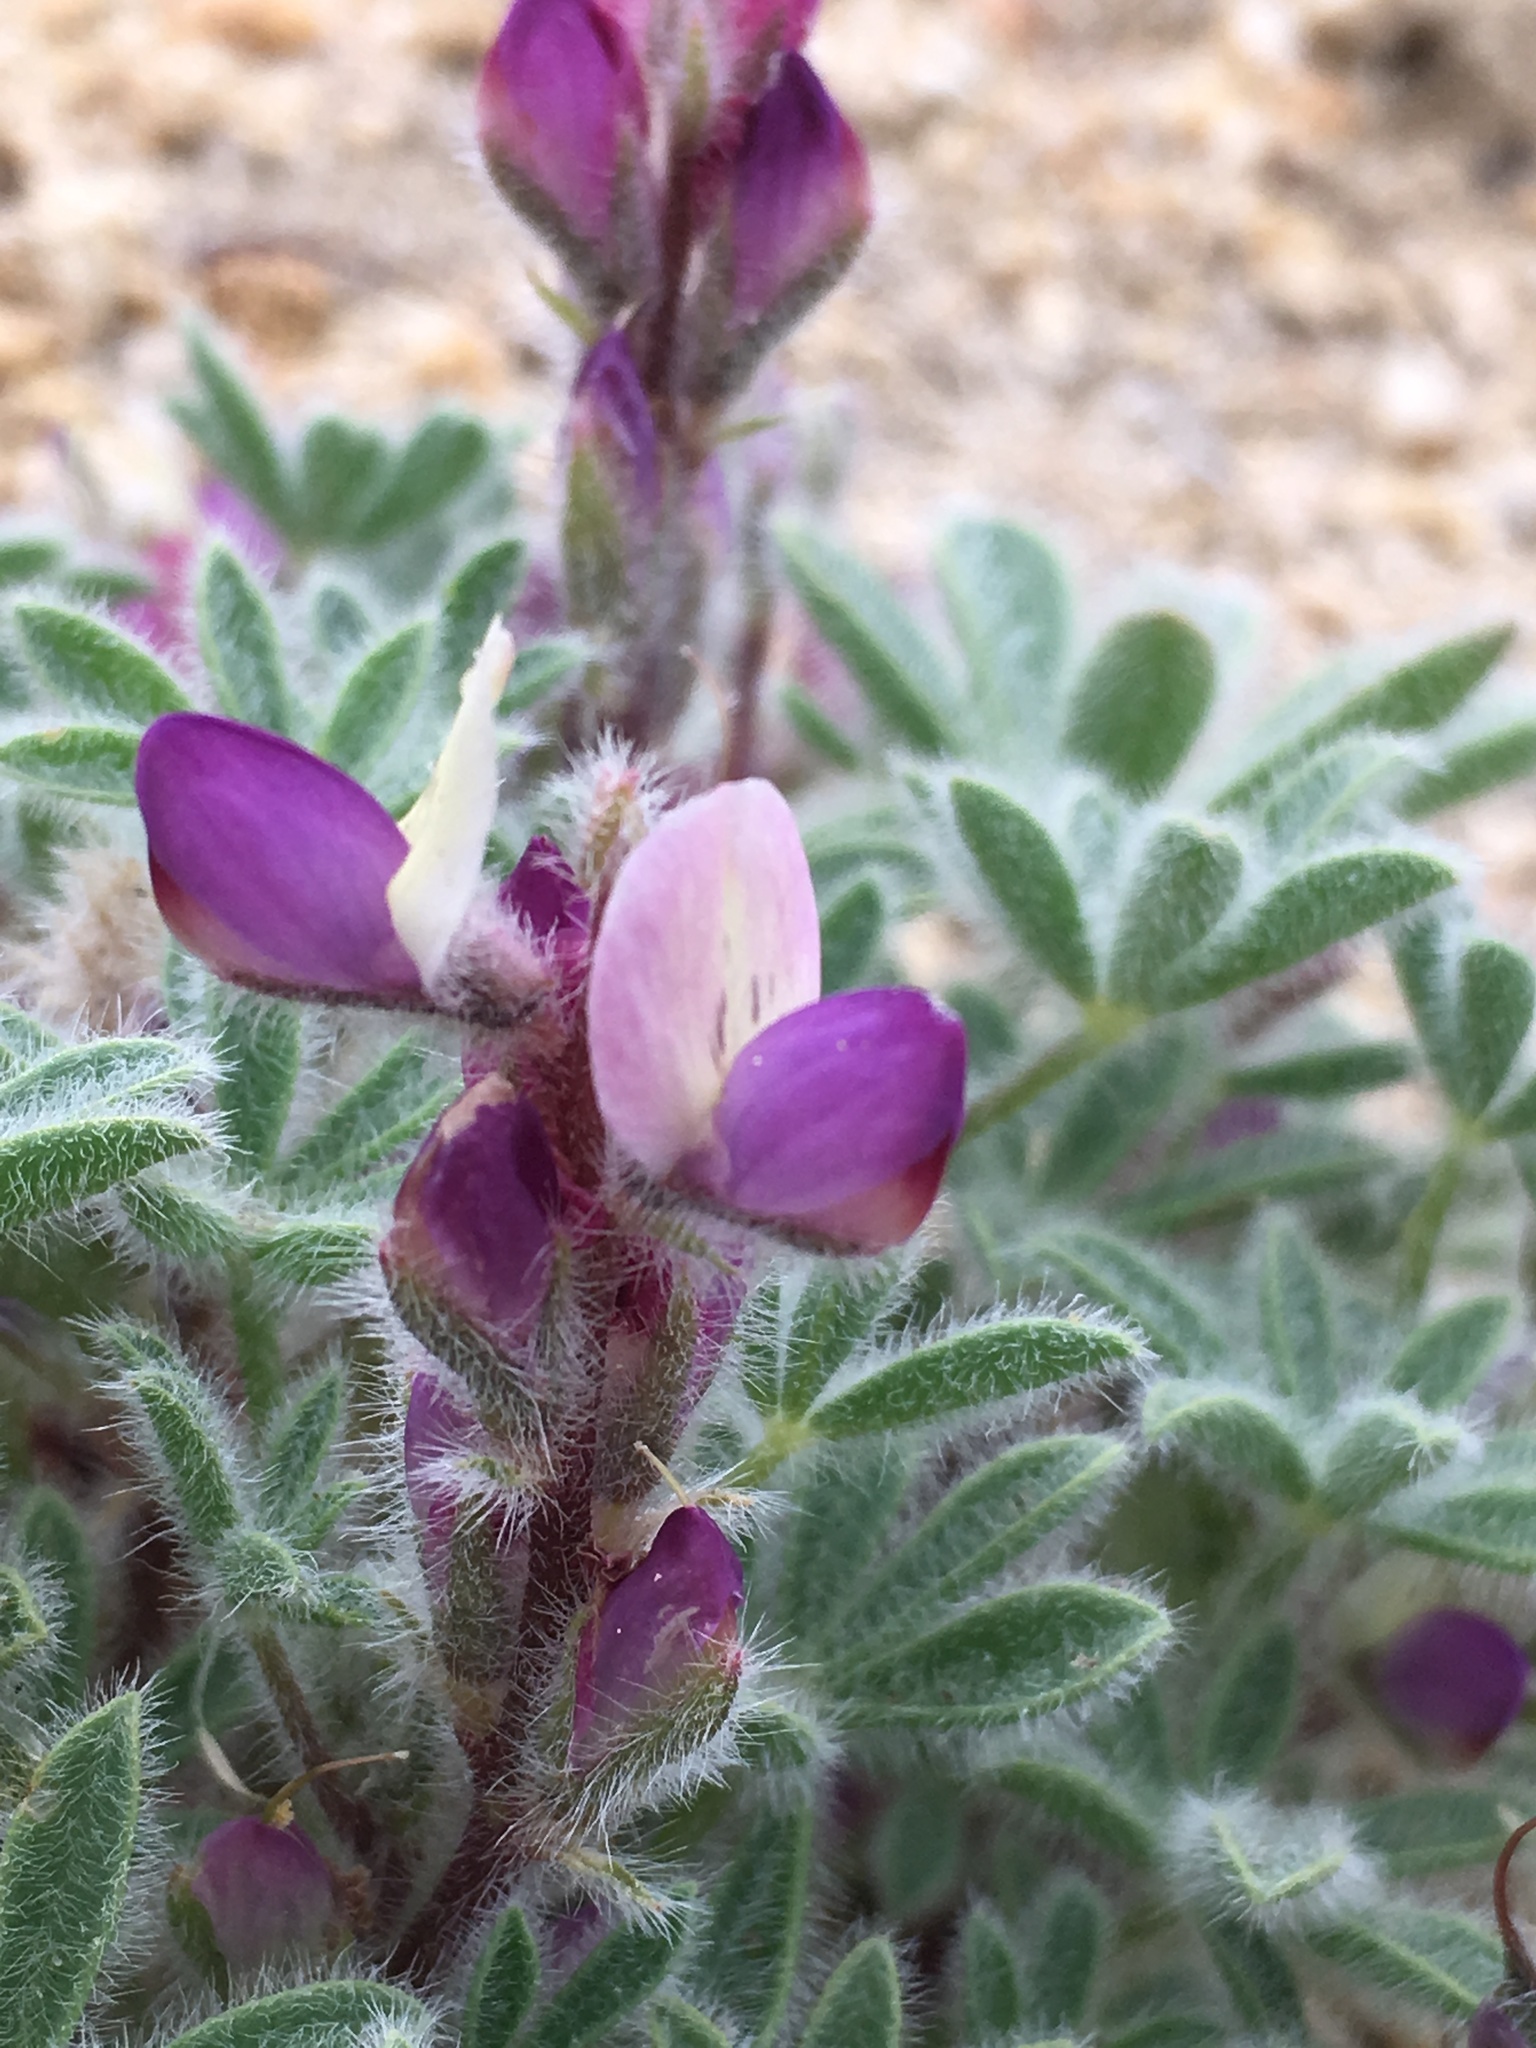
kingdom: Plantae
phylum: Tracheophyta
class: Magnoliopsida
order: Fabales
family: Fabaceae
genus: Lupinus
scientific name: Lupinus concinnus
